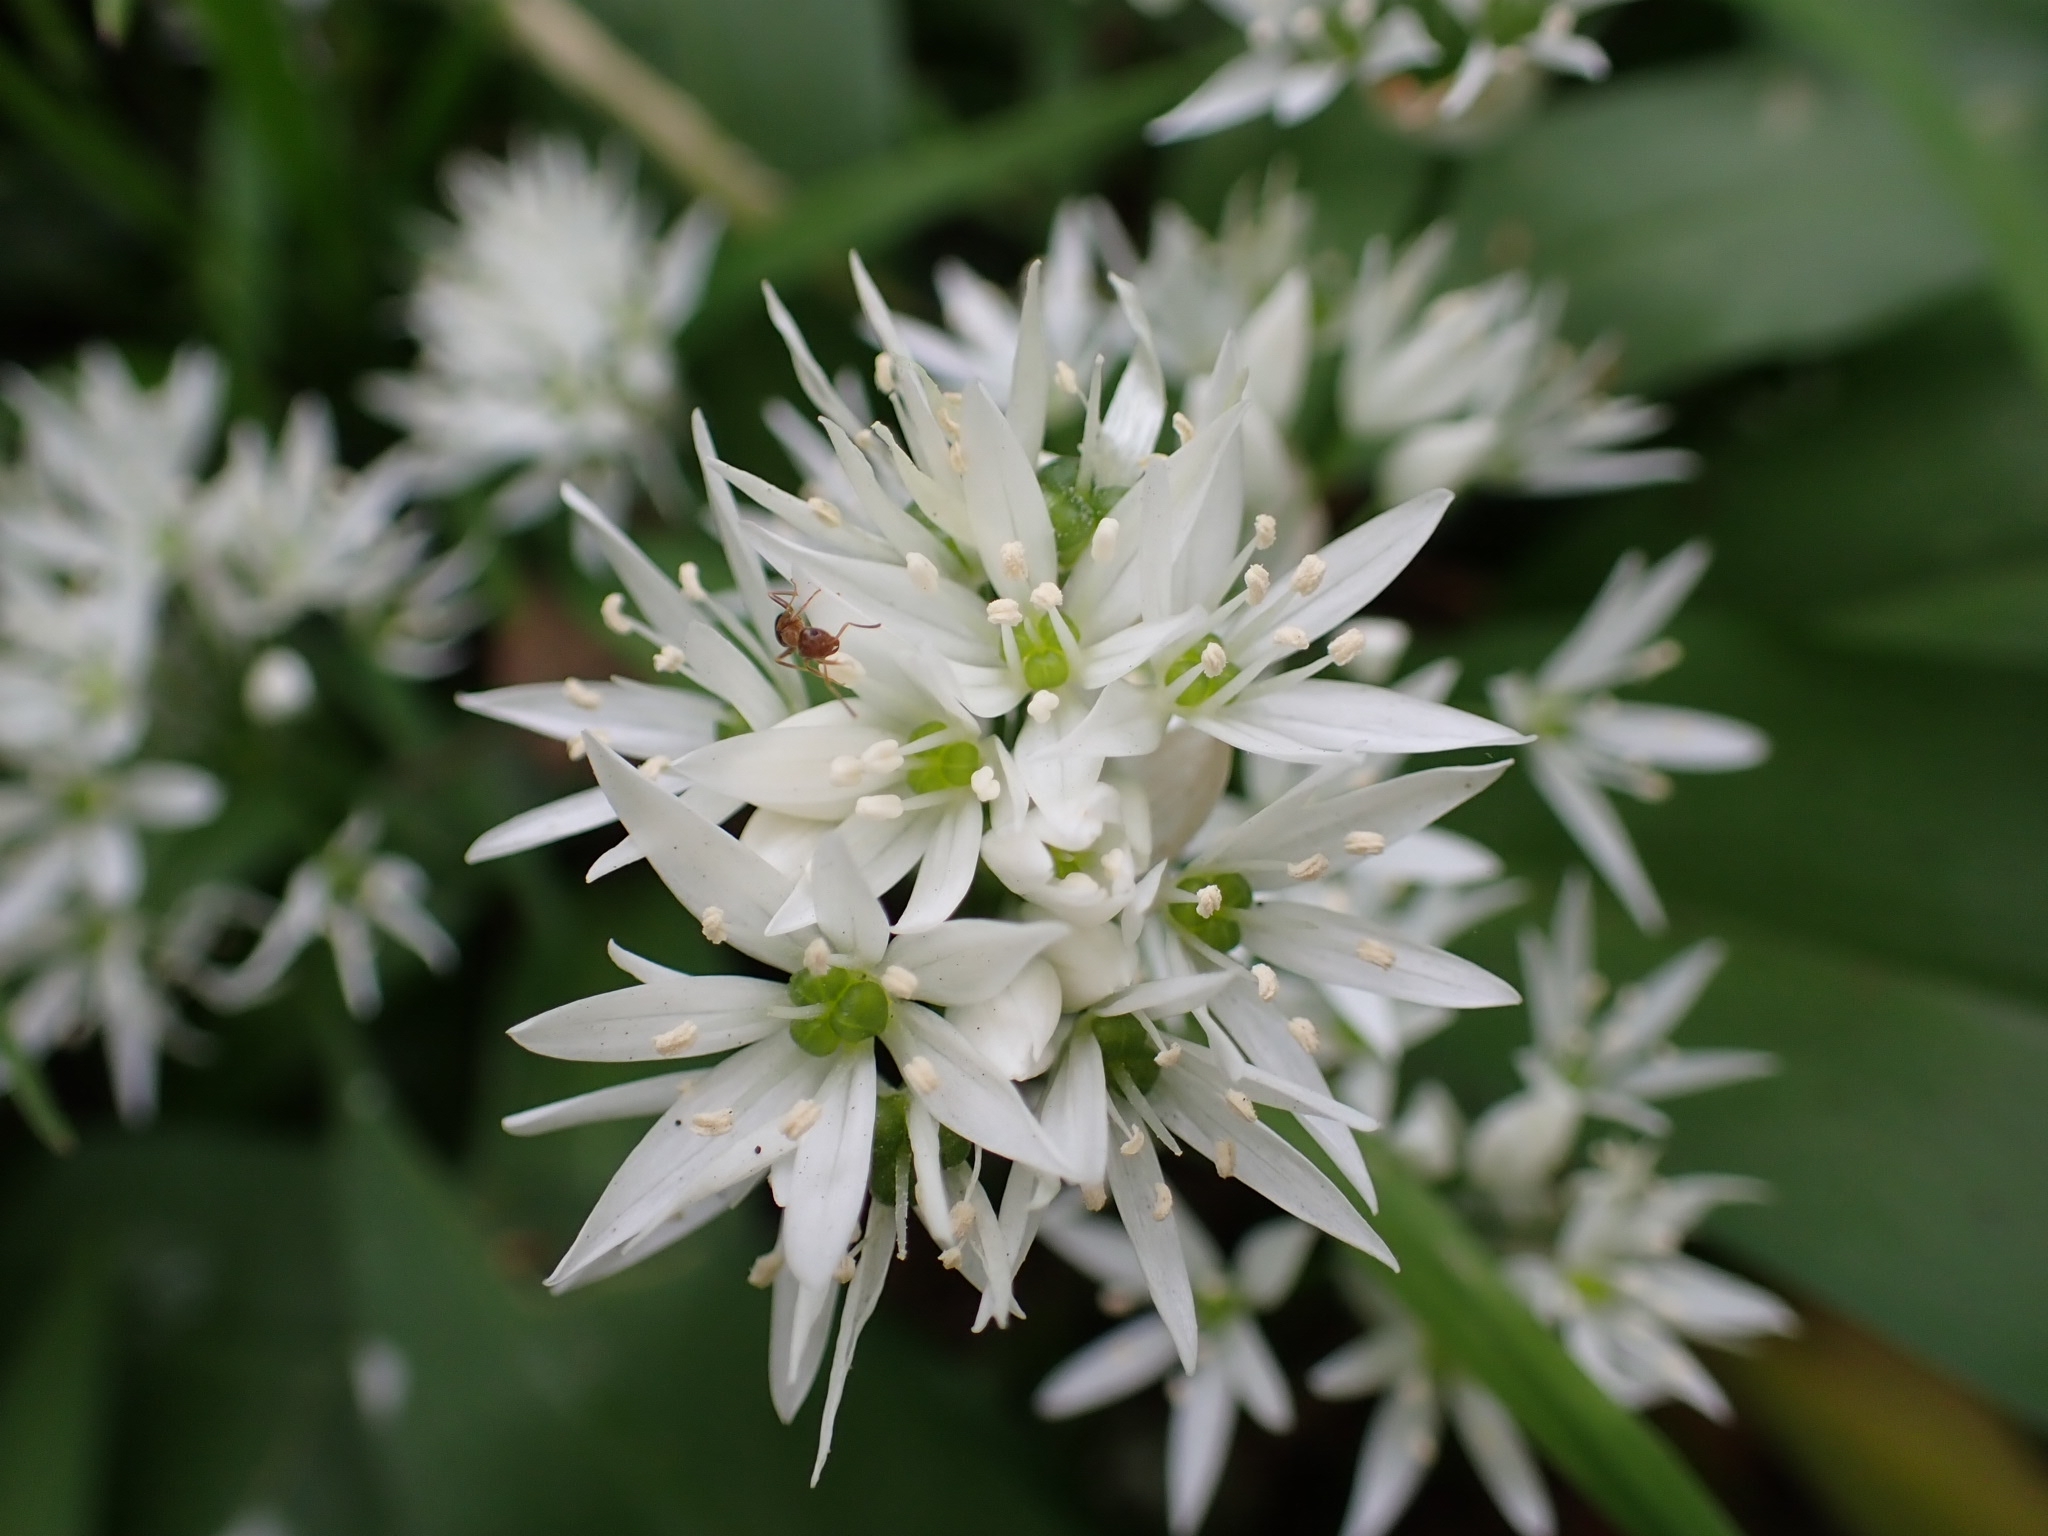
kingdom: Plantae
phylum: Tracheophyta
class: Liliopsida
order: Asparagales
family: Amaryllidaceae
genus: Allium
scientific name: Allium ursinum
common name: Ramsons
